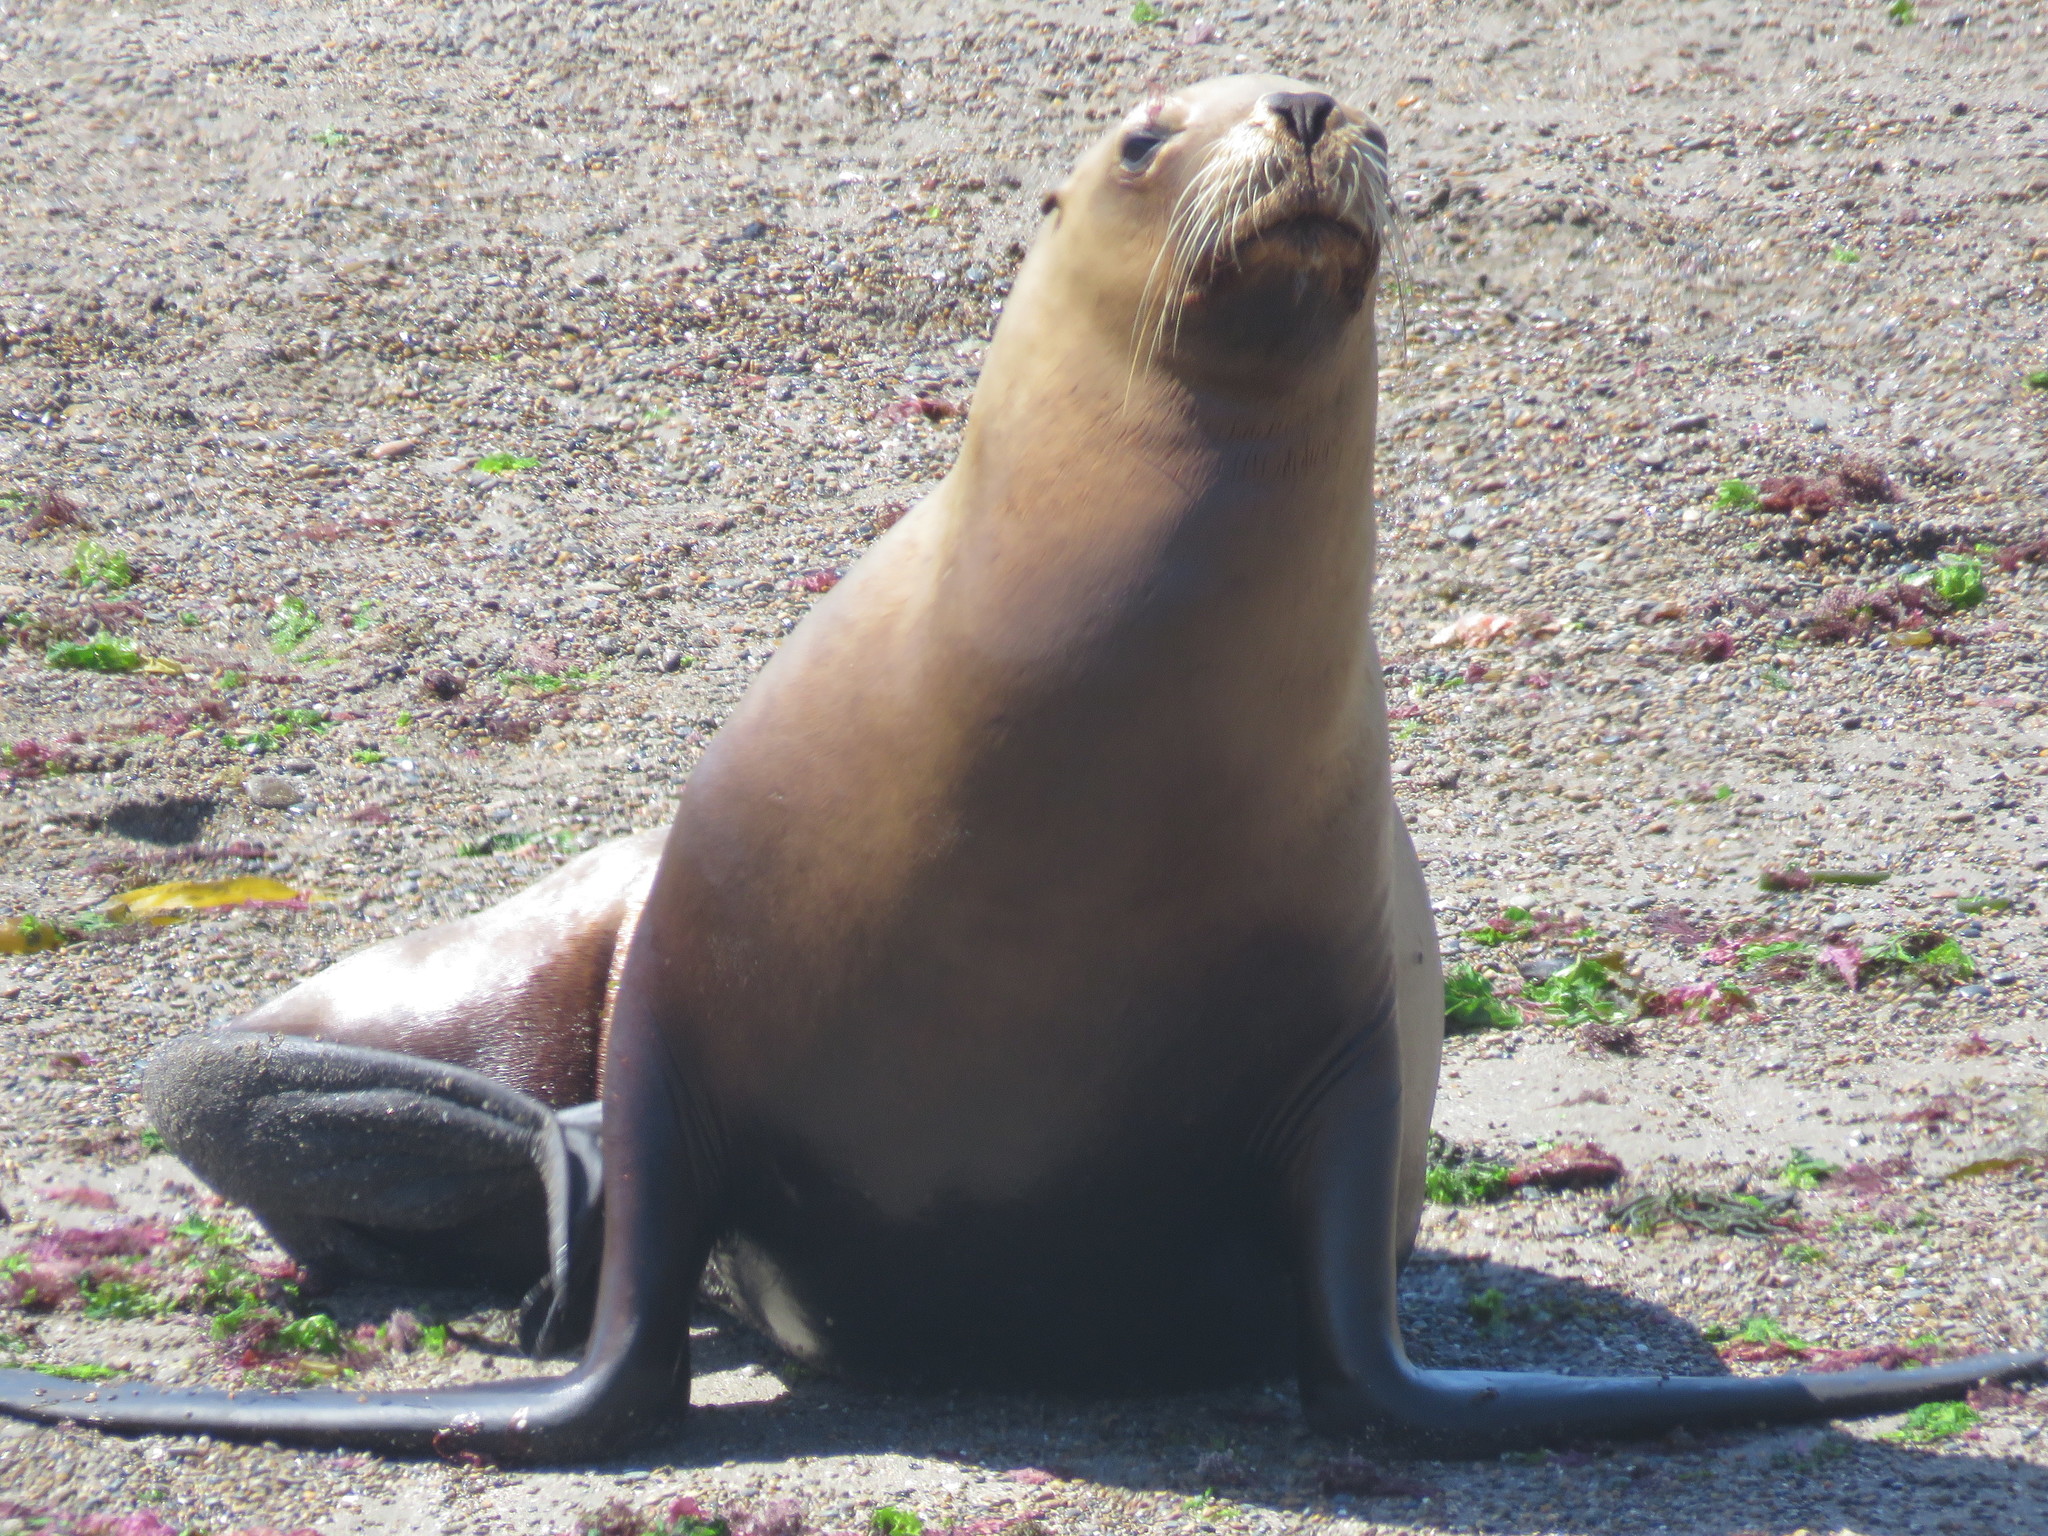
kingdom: Animalia
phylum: Chordata
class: Mammalia
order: Carnivora
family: Otariidae
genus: Otaria
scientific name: Otaria byronia
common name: South american sea lion
